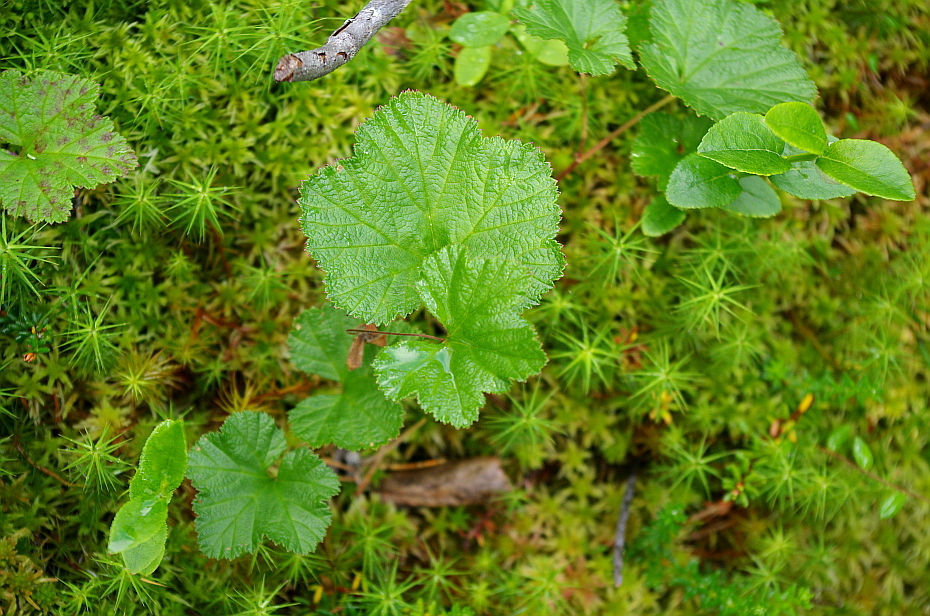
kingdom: Plantae
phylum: Tracheophyta
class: Magnoliopsida
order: Rosales
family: Rosaceae
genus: Rubus
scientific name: Rubus chamaemorus
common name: Cloudberry
